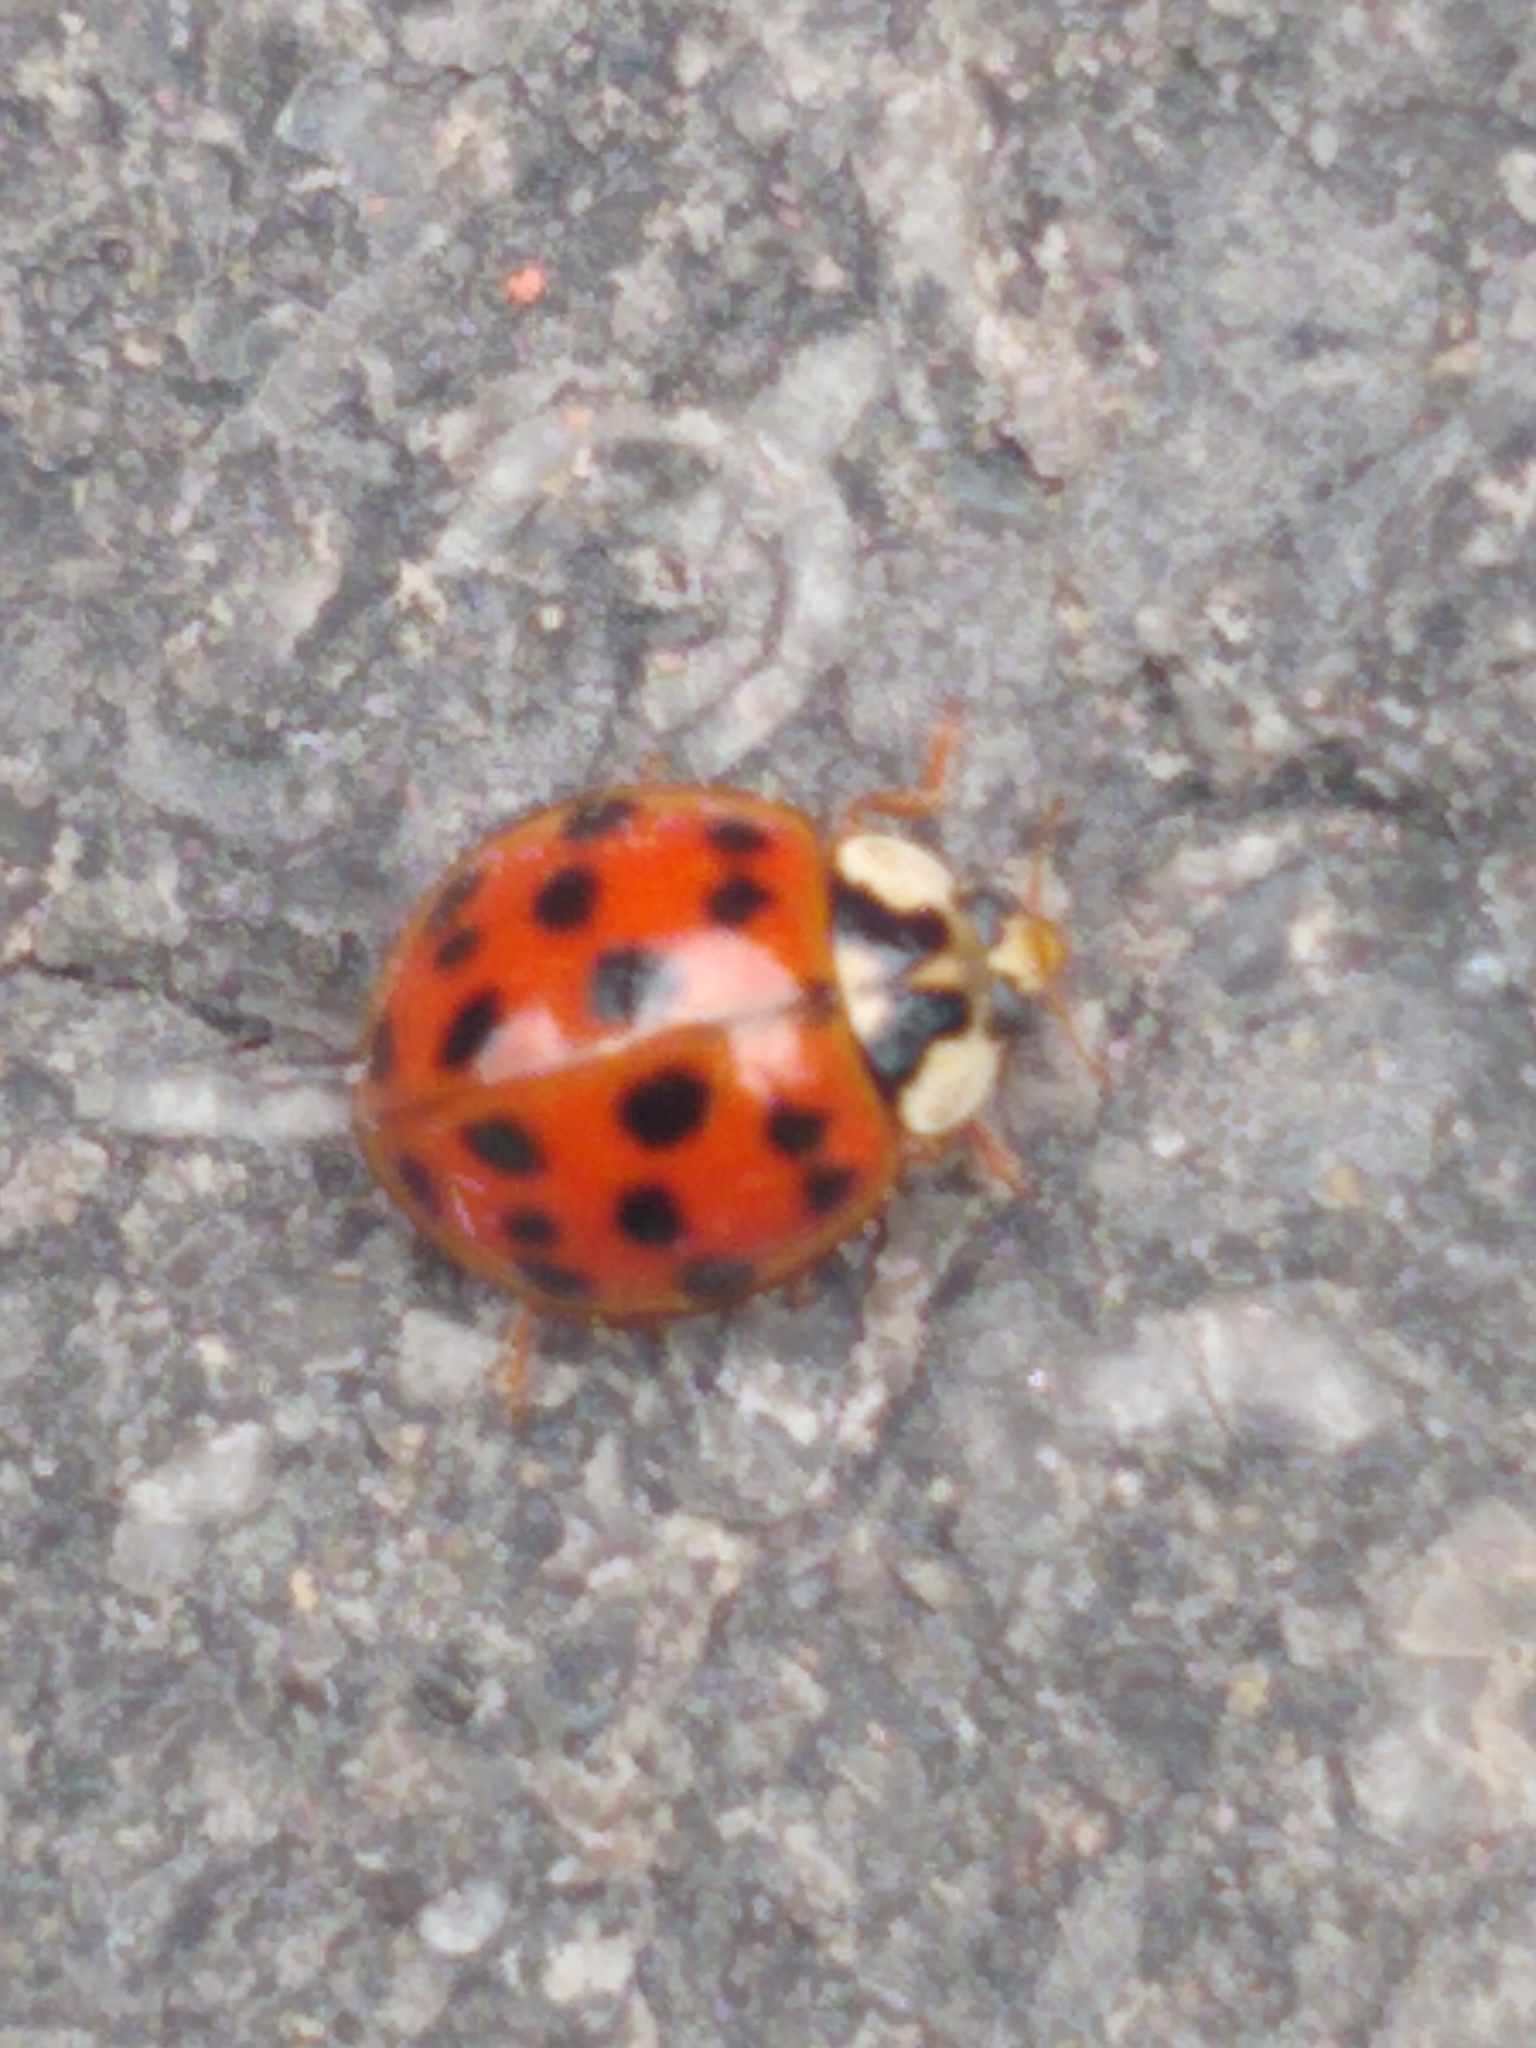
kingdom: Animalia
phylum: Arthropoda
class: Insecta
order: Coleoptera
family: Coccinellidae
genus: Harmonia
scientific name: Harmonia axyridis
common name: Harlequin ladybird
